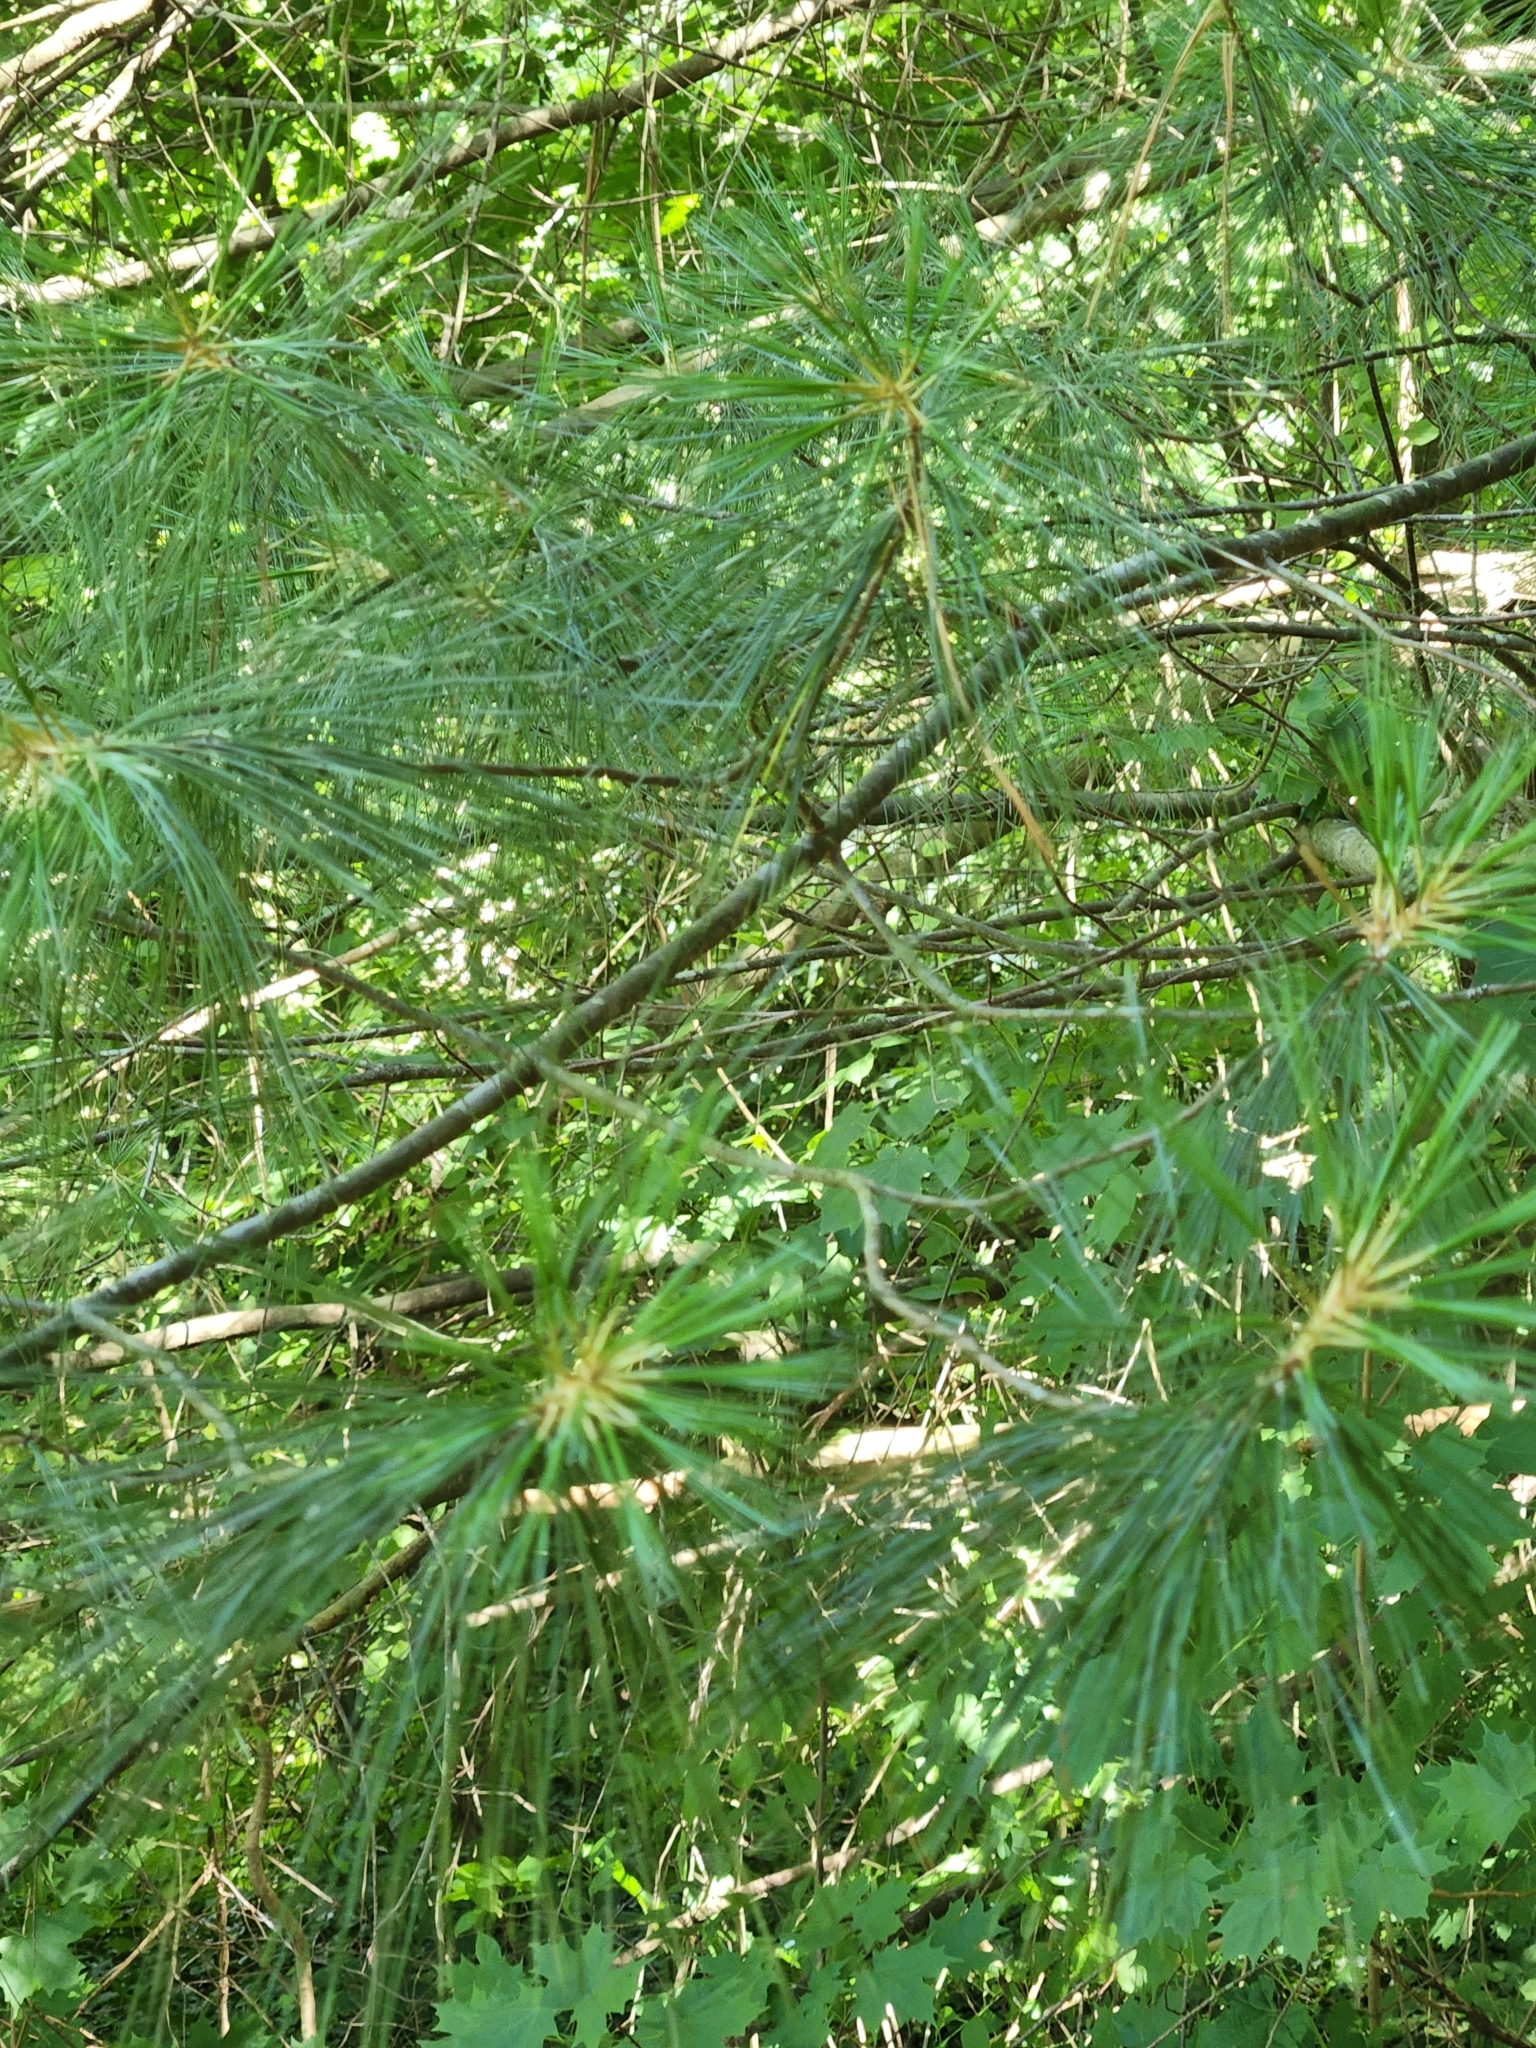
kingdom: Plantae
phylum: Tracheophyta
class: Pinopsida
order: Pinales
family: Pinaceae
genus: Pinus
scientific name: Pinus strobus
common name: Weymouth pine
